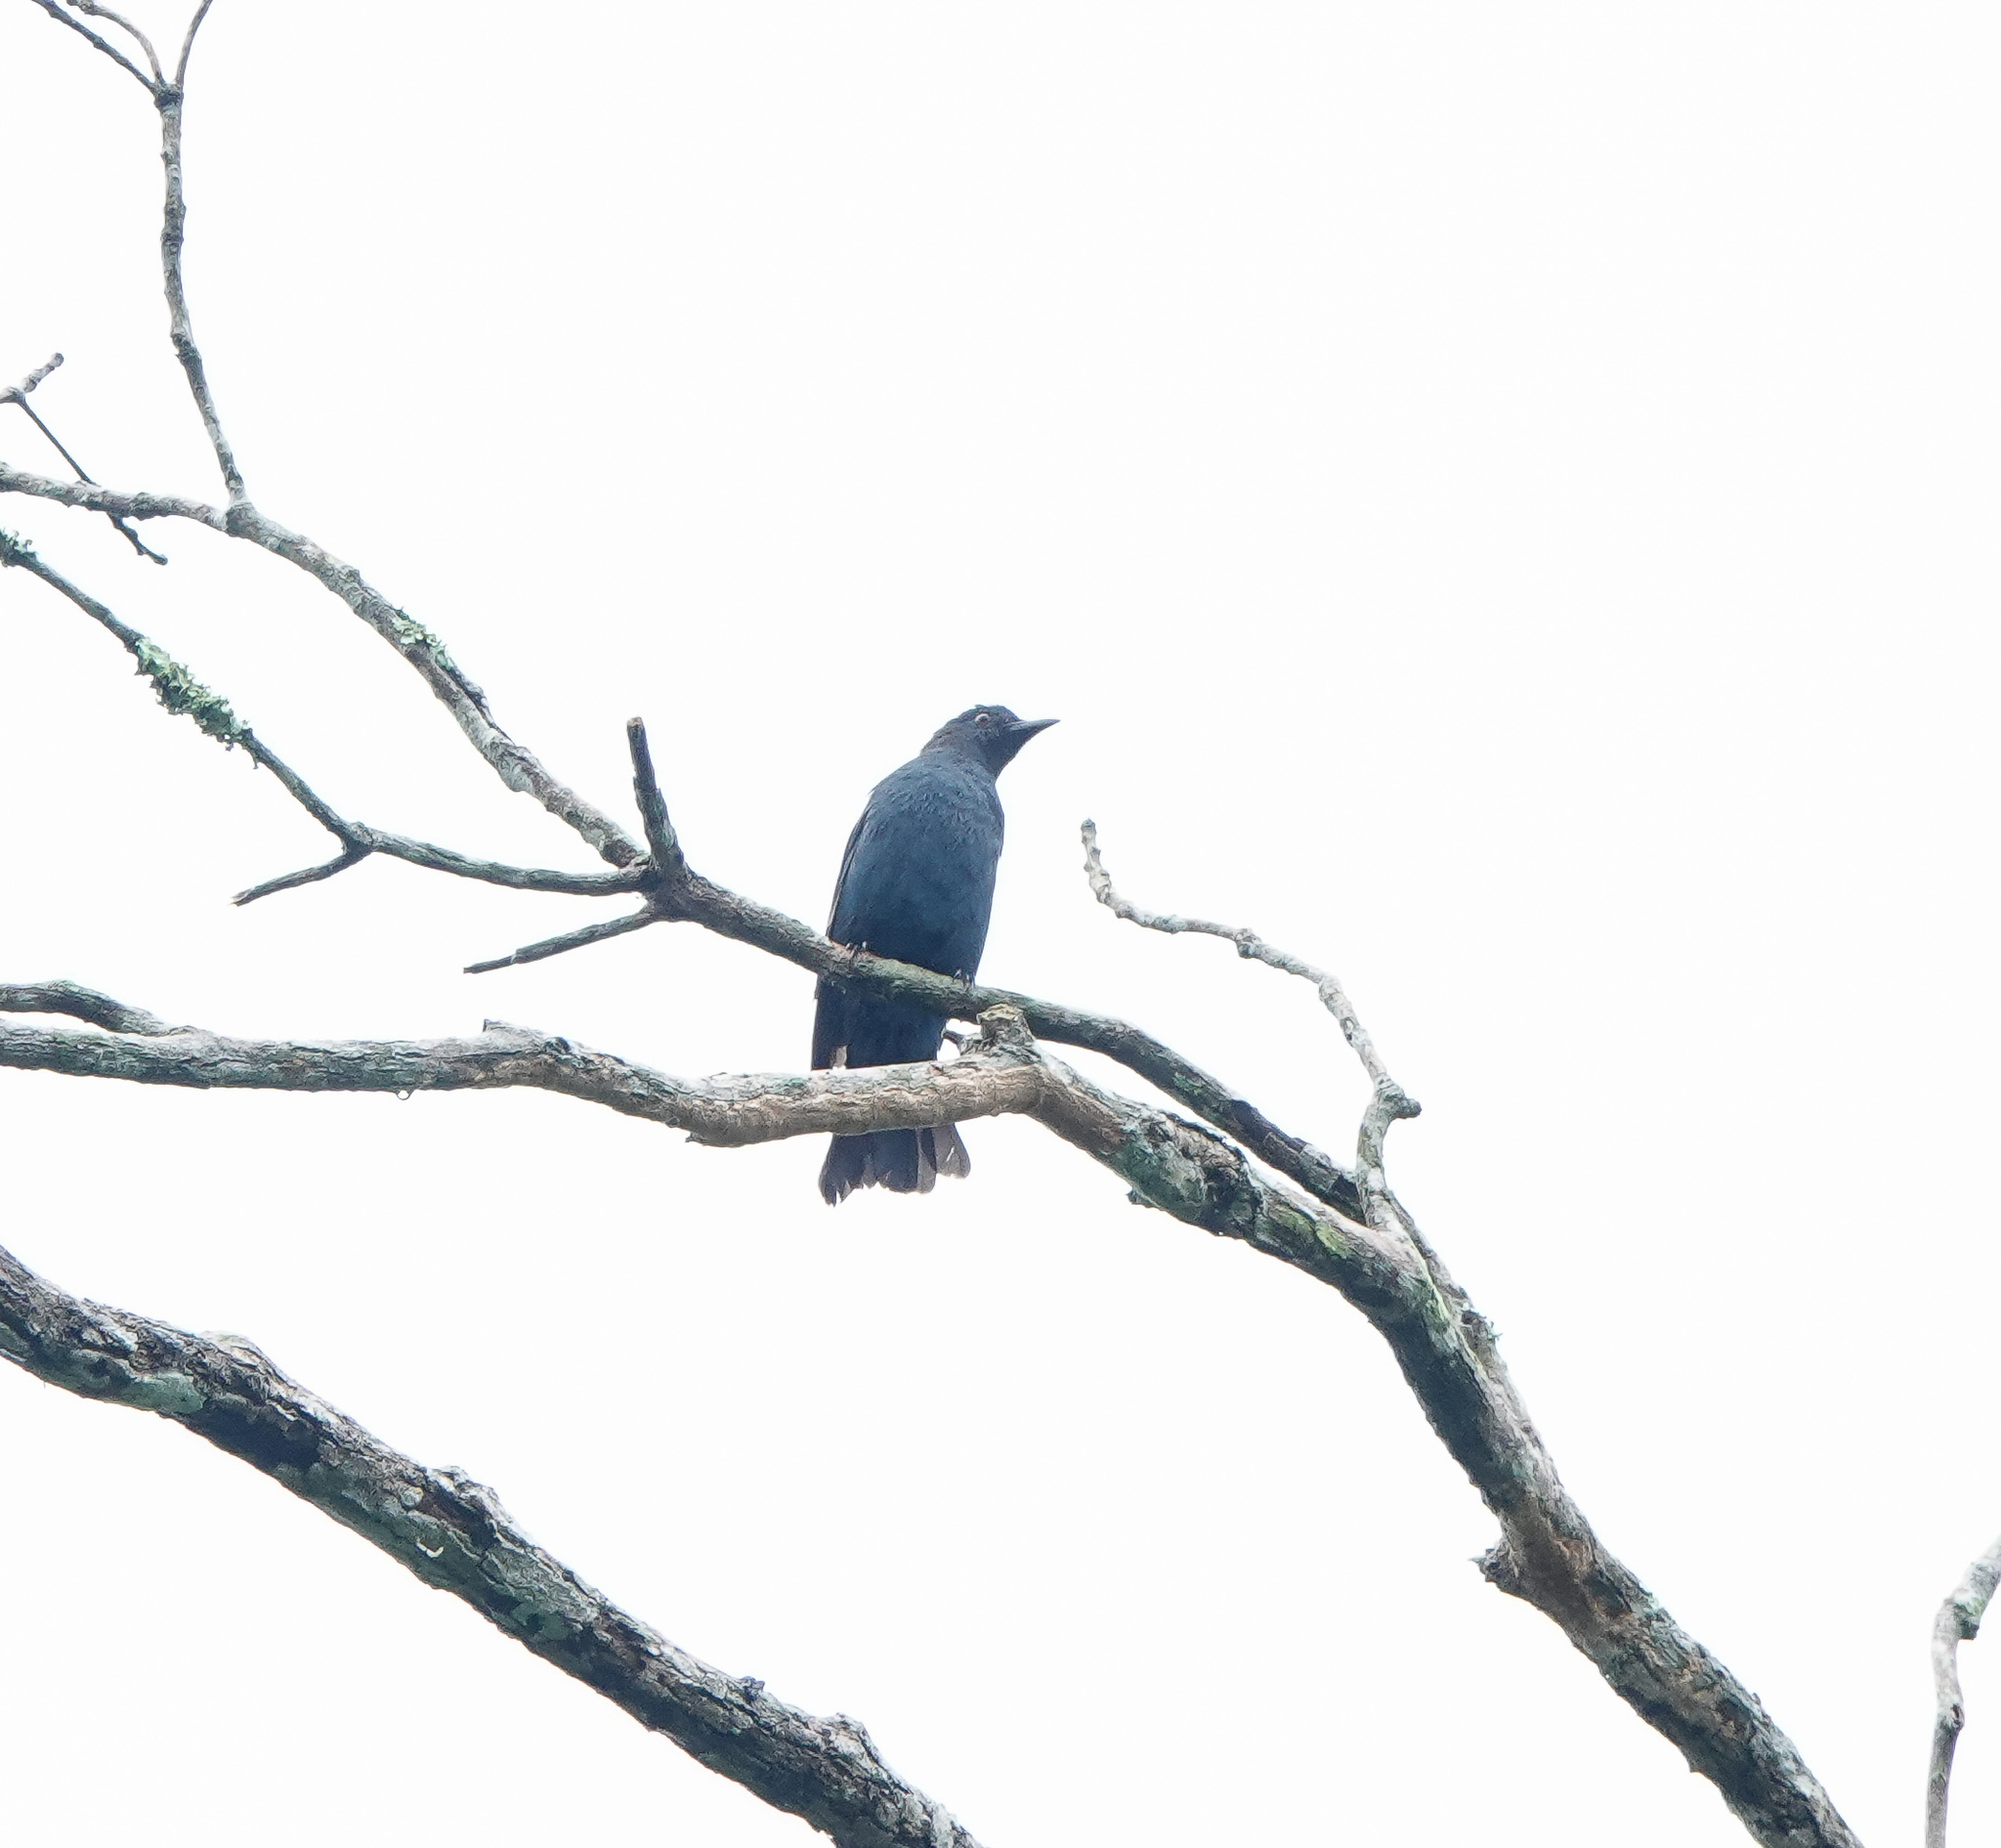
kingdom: Animalia
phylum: Chordata
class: Aves
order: Passeriformes
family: Irenidae
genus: Irena
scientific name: Irena puella
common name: Asian fairy-bluebird
